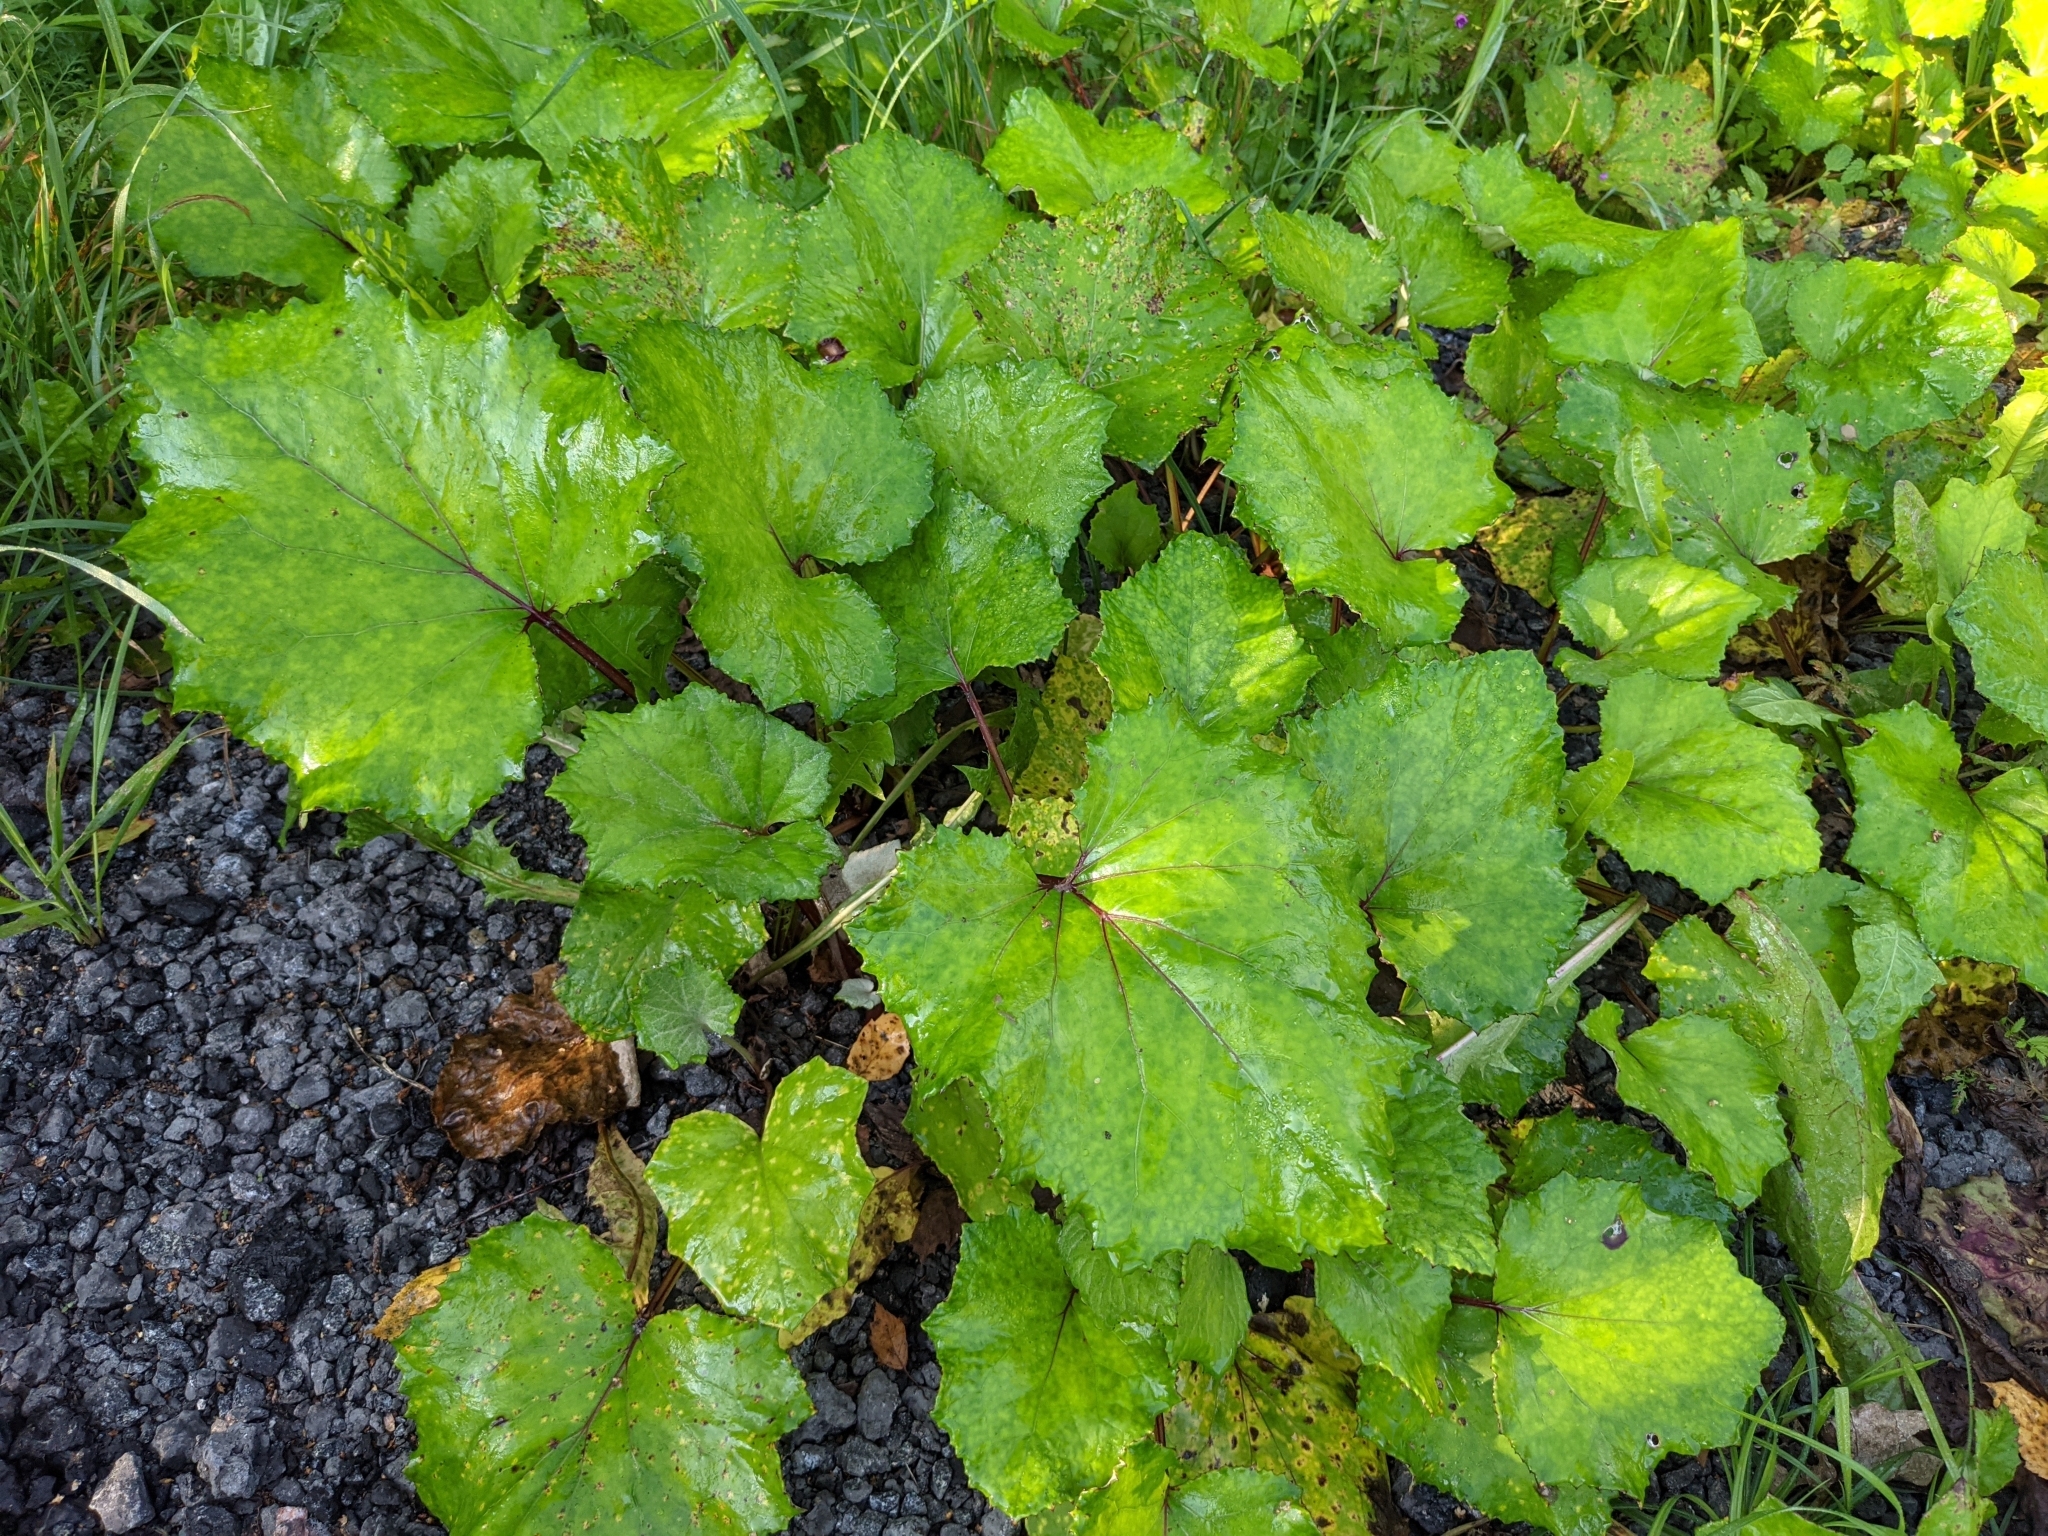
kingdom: Plantae
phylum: Tracheophyta
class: Magnoliopsida
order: Asterales
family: Asteraceae
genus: Tussilago
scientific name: Tussilago farfara
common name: Coltsfoot
